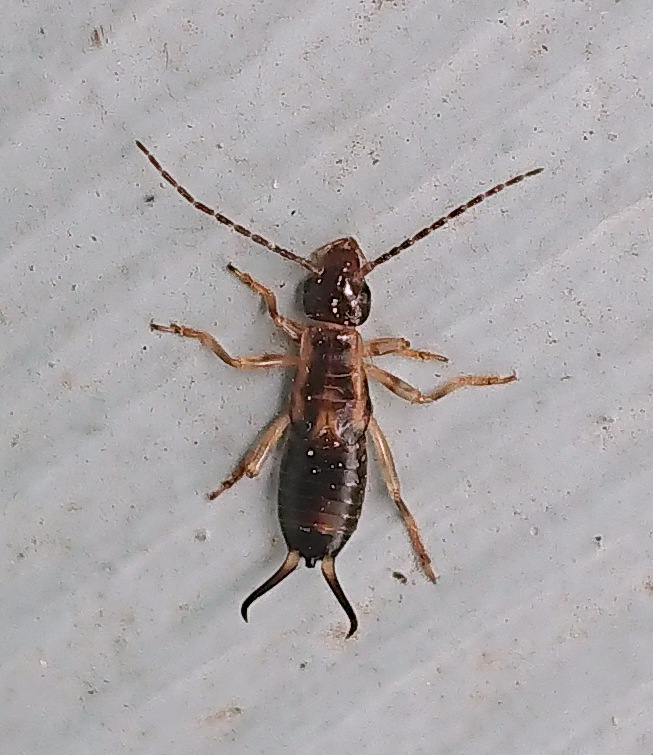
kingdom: Animalia
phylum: Arthropoda
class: Insecta
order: Dermaptera
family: Forficulidae
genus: Forficula
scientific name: Forficula
